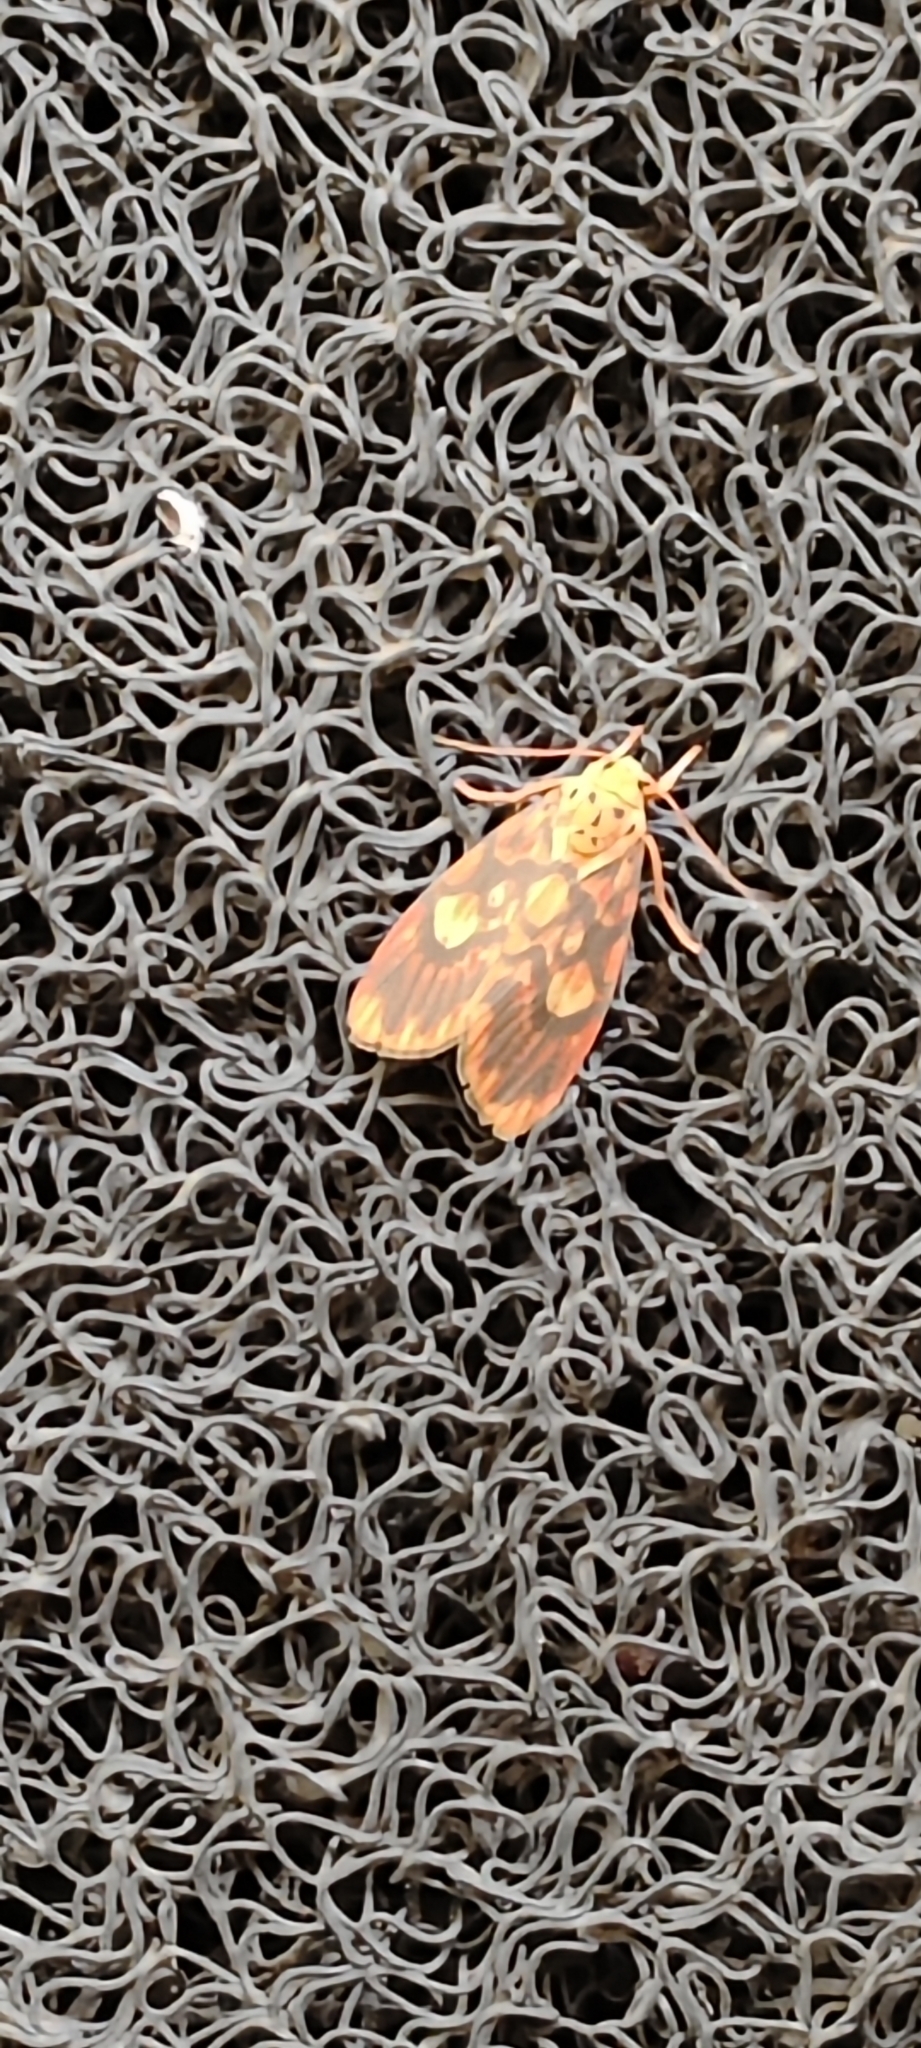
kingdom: Animalia
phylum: Arthropoda
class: Insecta
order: Lepidoptera
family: Erebidae
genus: Ammatho
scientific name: Ammatho cuneonotatus
